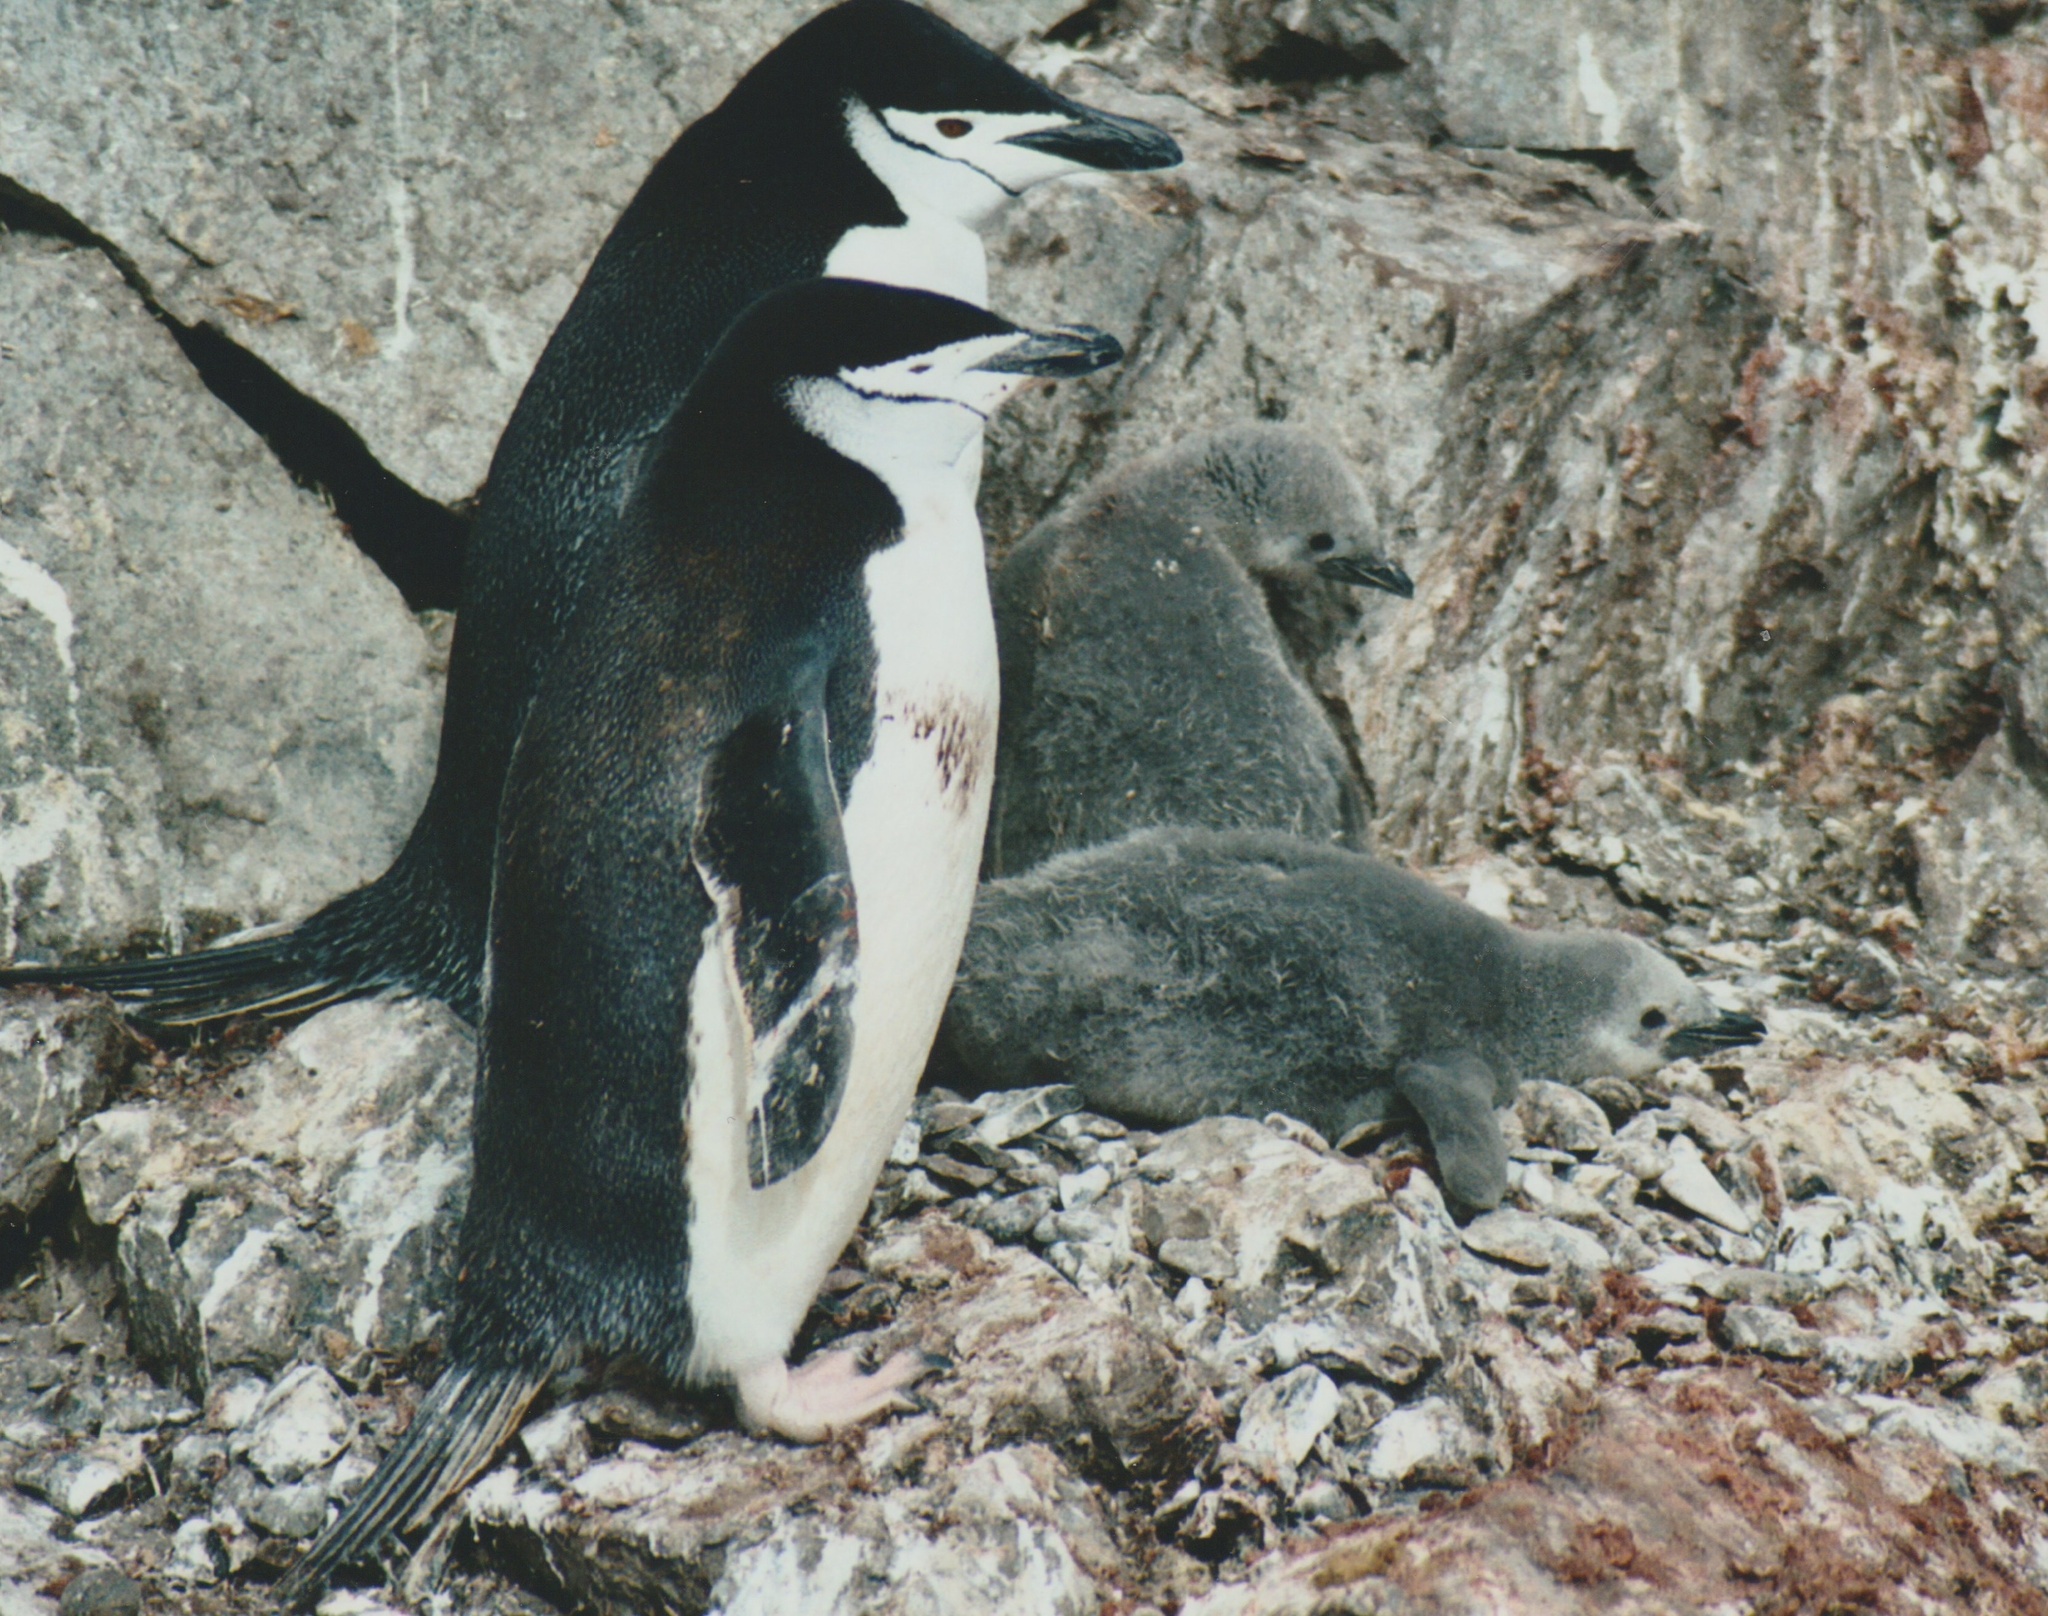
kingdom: Animalia
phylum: Chordata
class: Aves
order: Sphenisciformes
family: Spheniscidae
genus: Pygoscelis
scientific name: Pygoscelis antarcticus
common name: Chinstrap penguin
